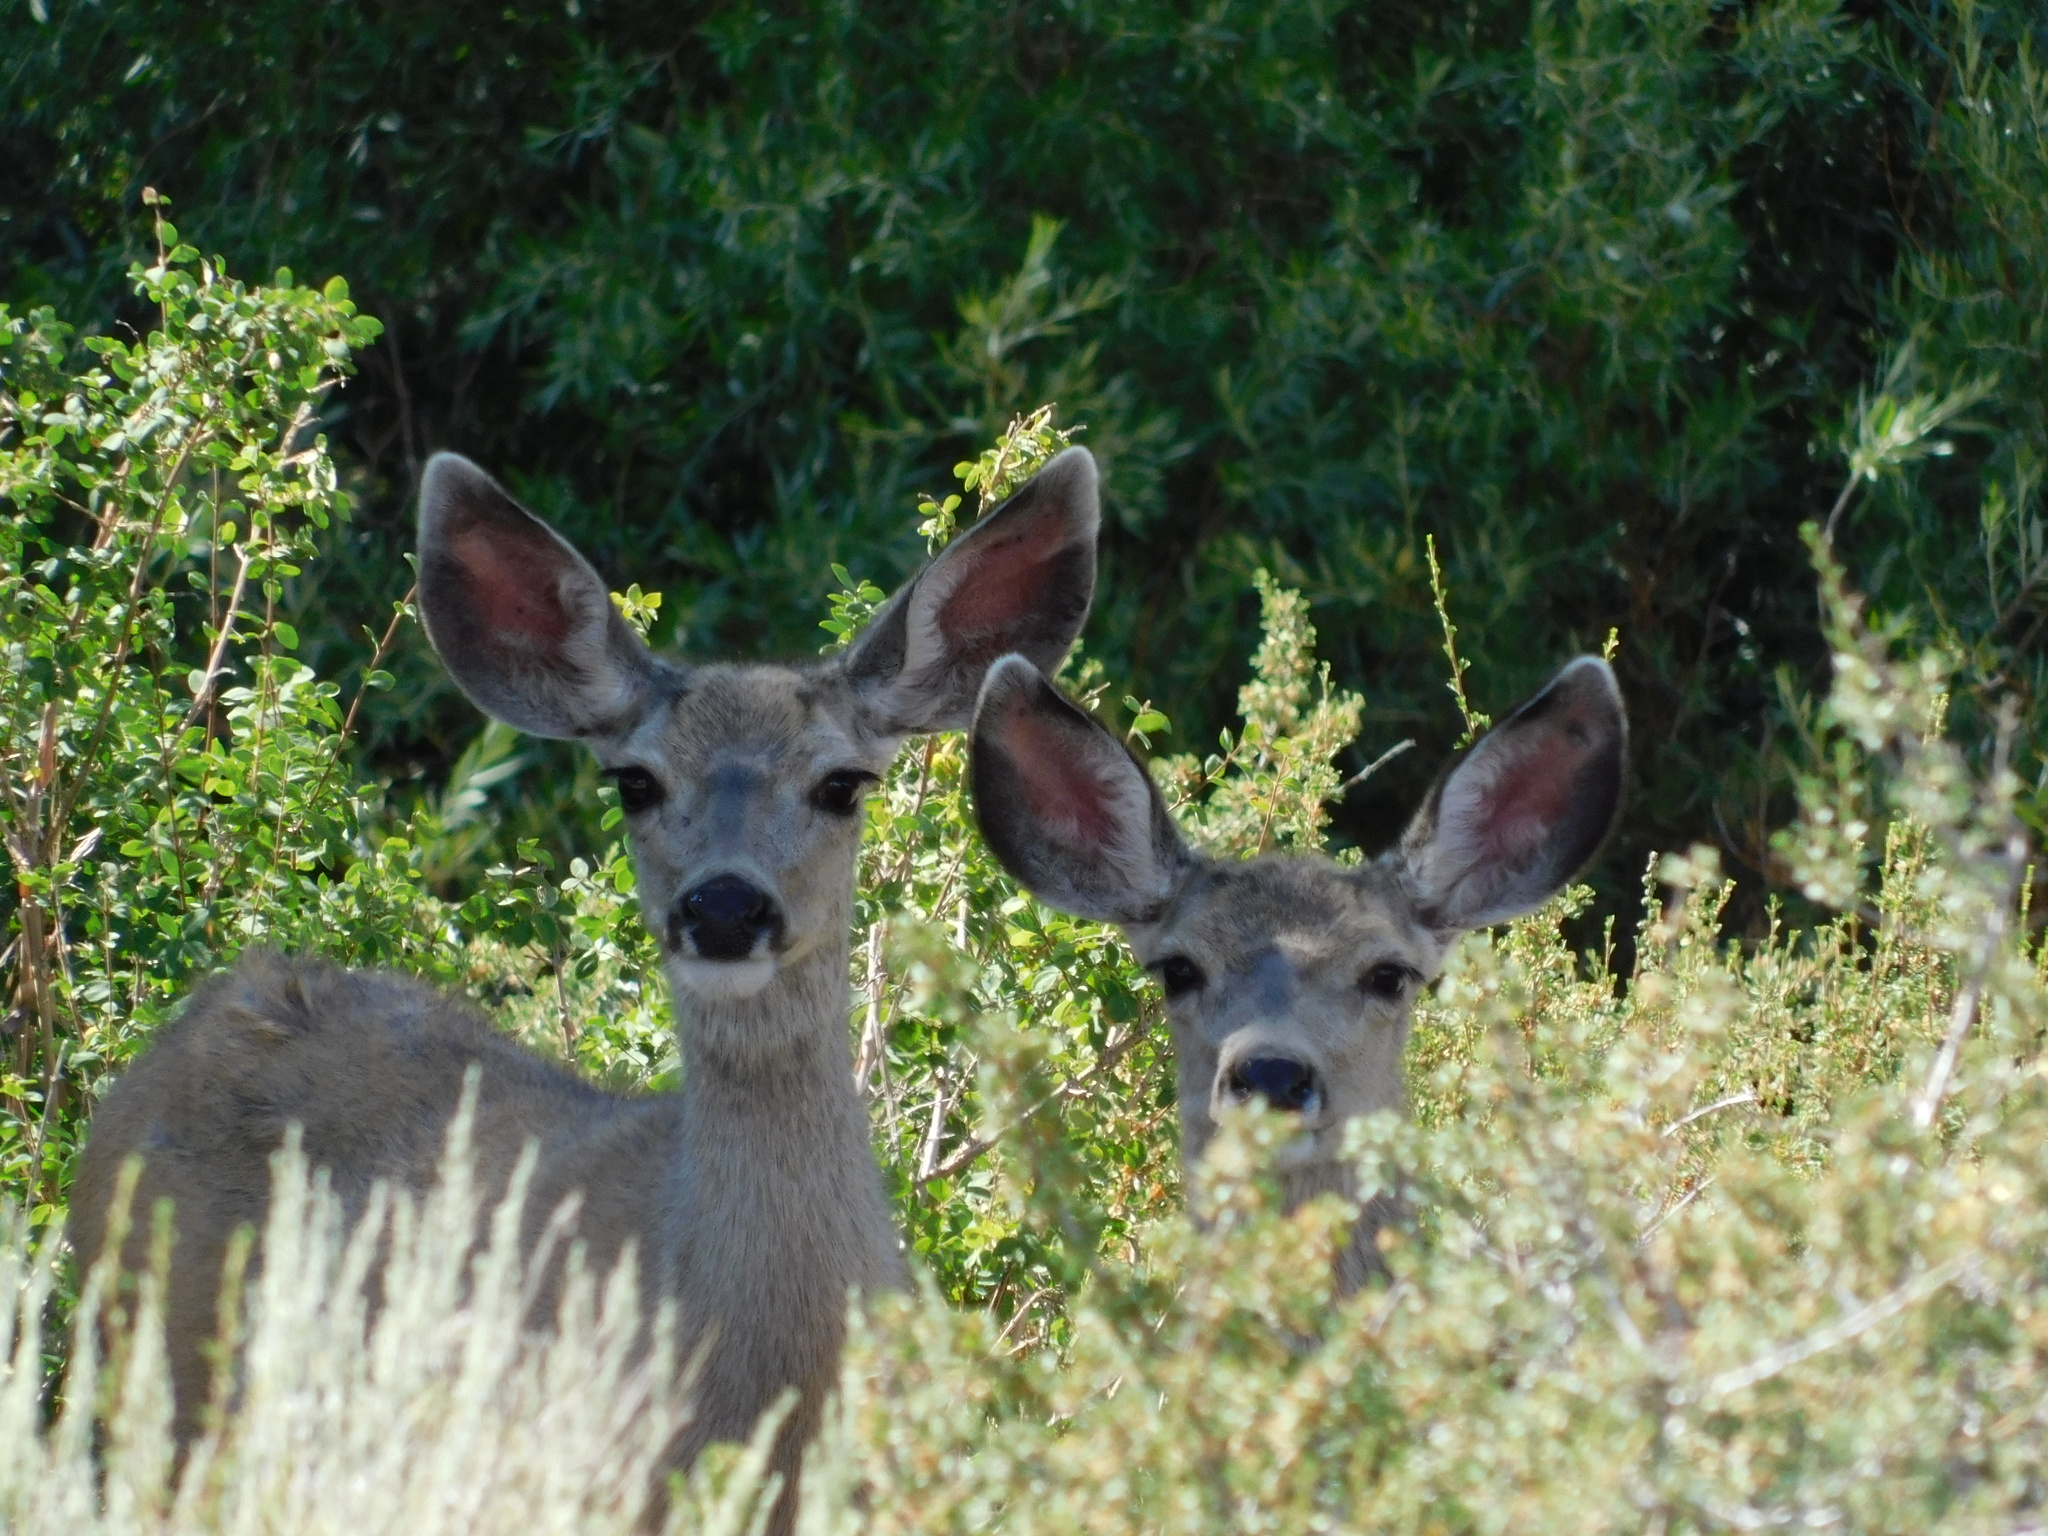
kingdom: Animalia
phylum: Chordata
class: Mammalia
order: Artiodactyla
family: Cervidae
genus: Odocoileus
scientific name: Odocoileus hemionus
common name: Mule deer
